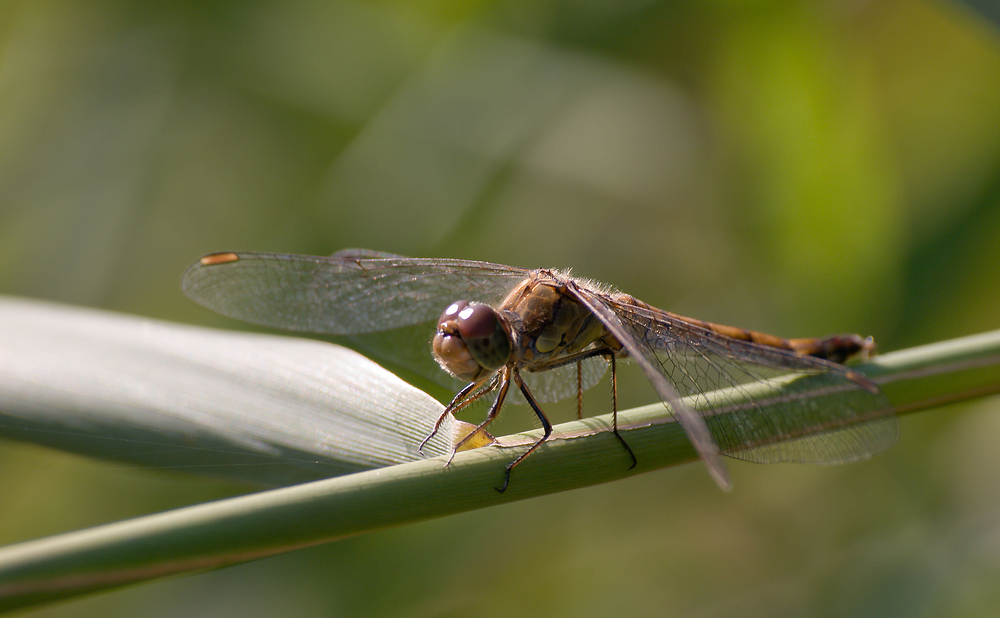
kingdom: Animalia
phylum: Arthropoda
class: Insecta
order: Odonata
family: Libellulidae
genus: Sympetrum
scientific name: Sympetrum striolatum
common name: Common darter
